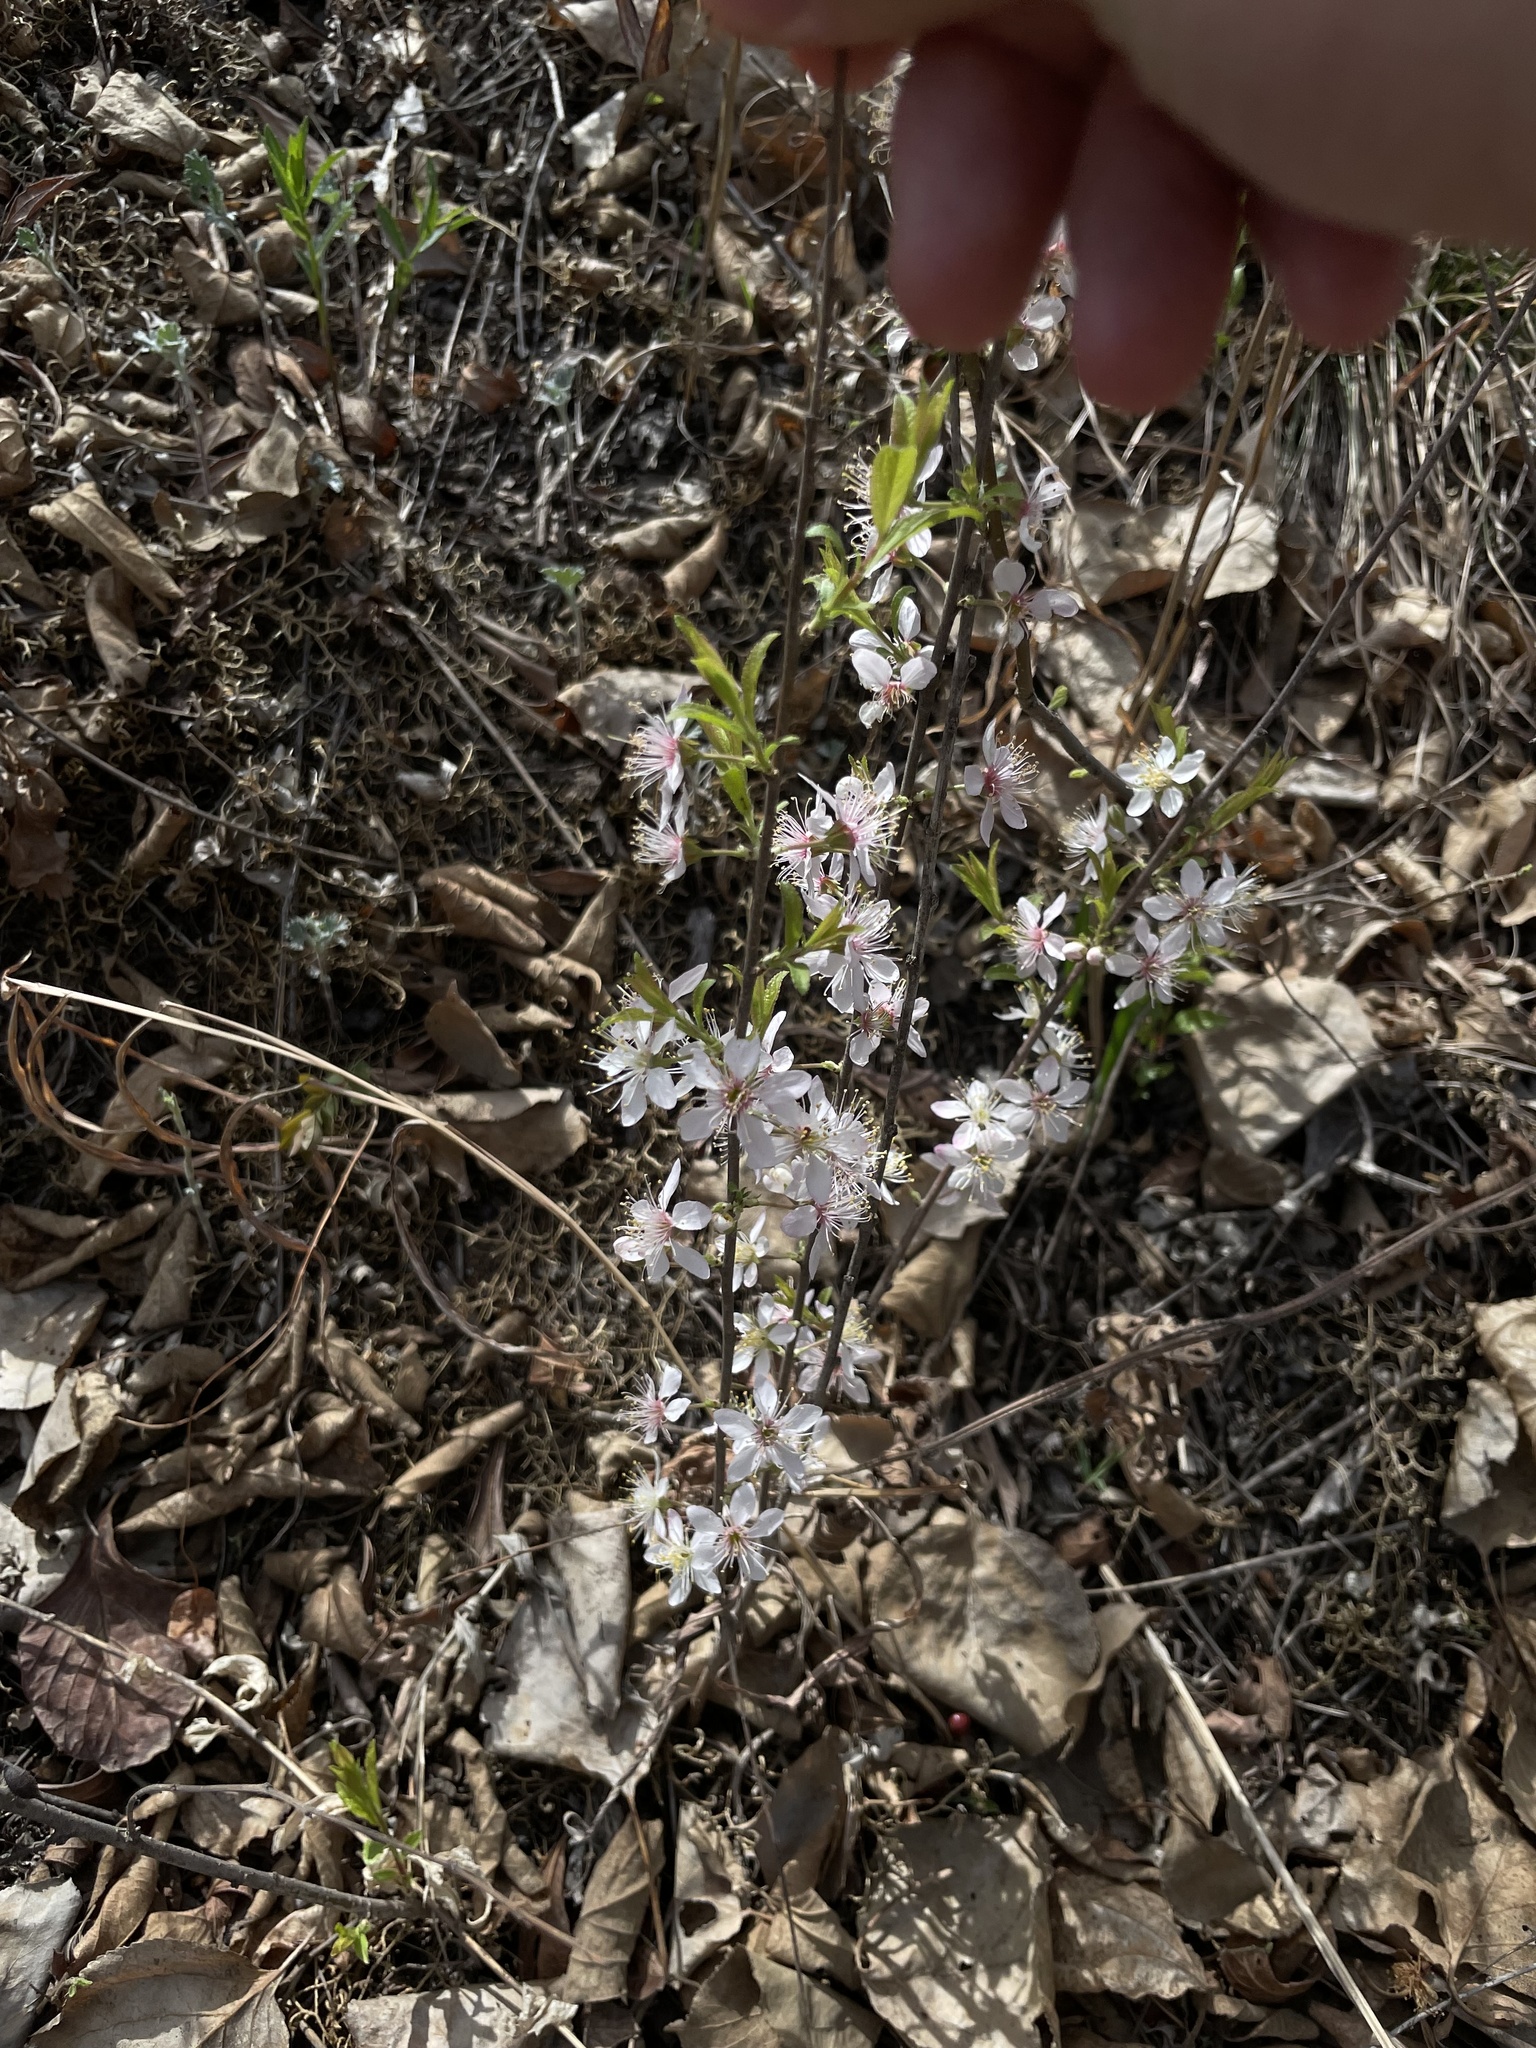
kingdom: Plantae
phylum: Tracheophyta
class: Magnoliopsida
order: Rosales
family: Rosaceae
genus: Prunus
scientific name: Prunus humilis
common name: Humble bush cherry
